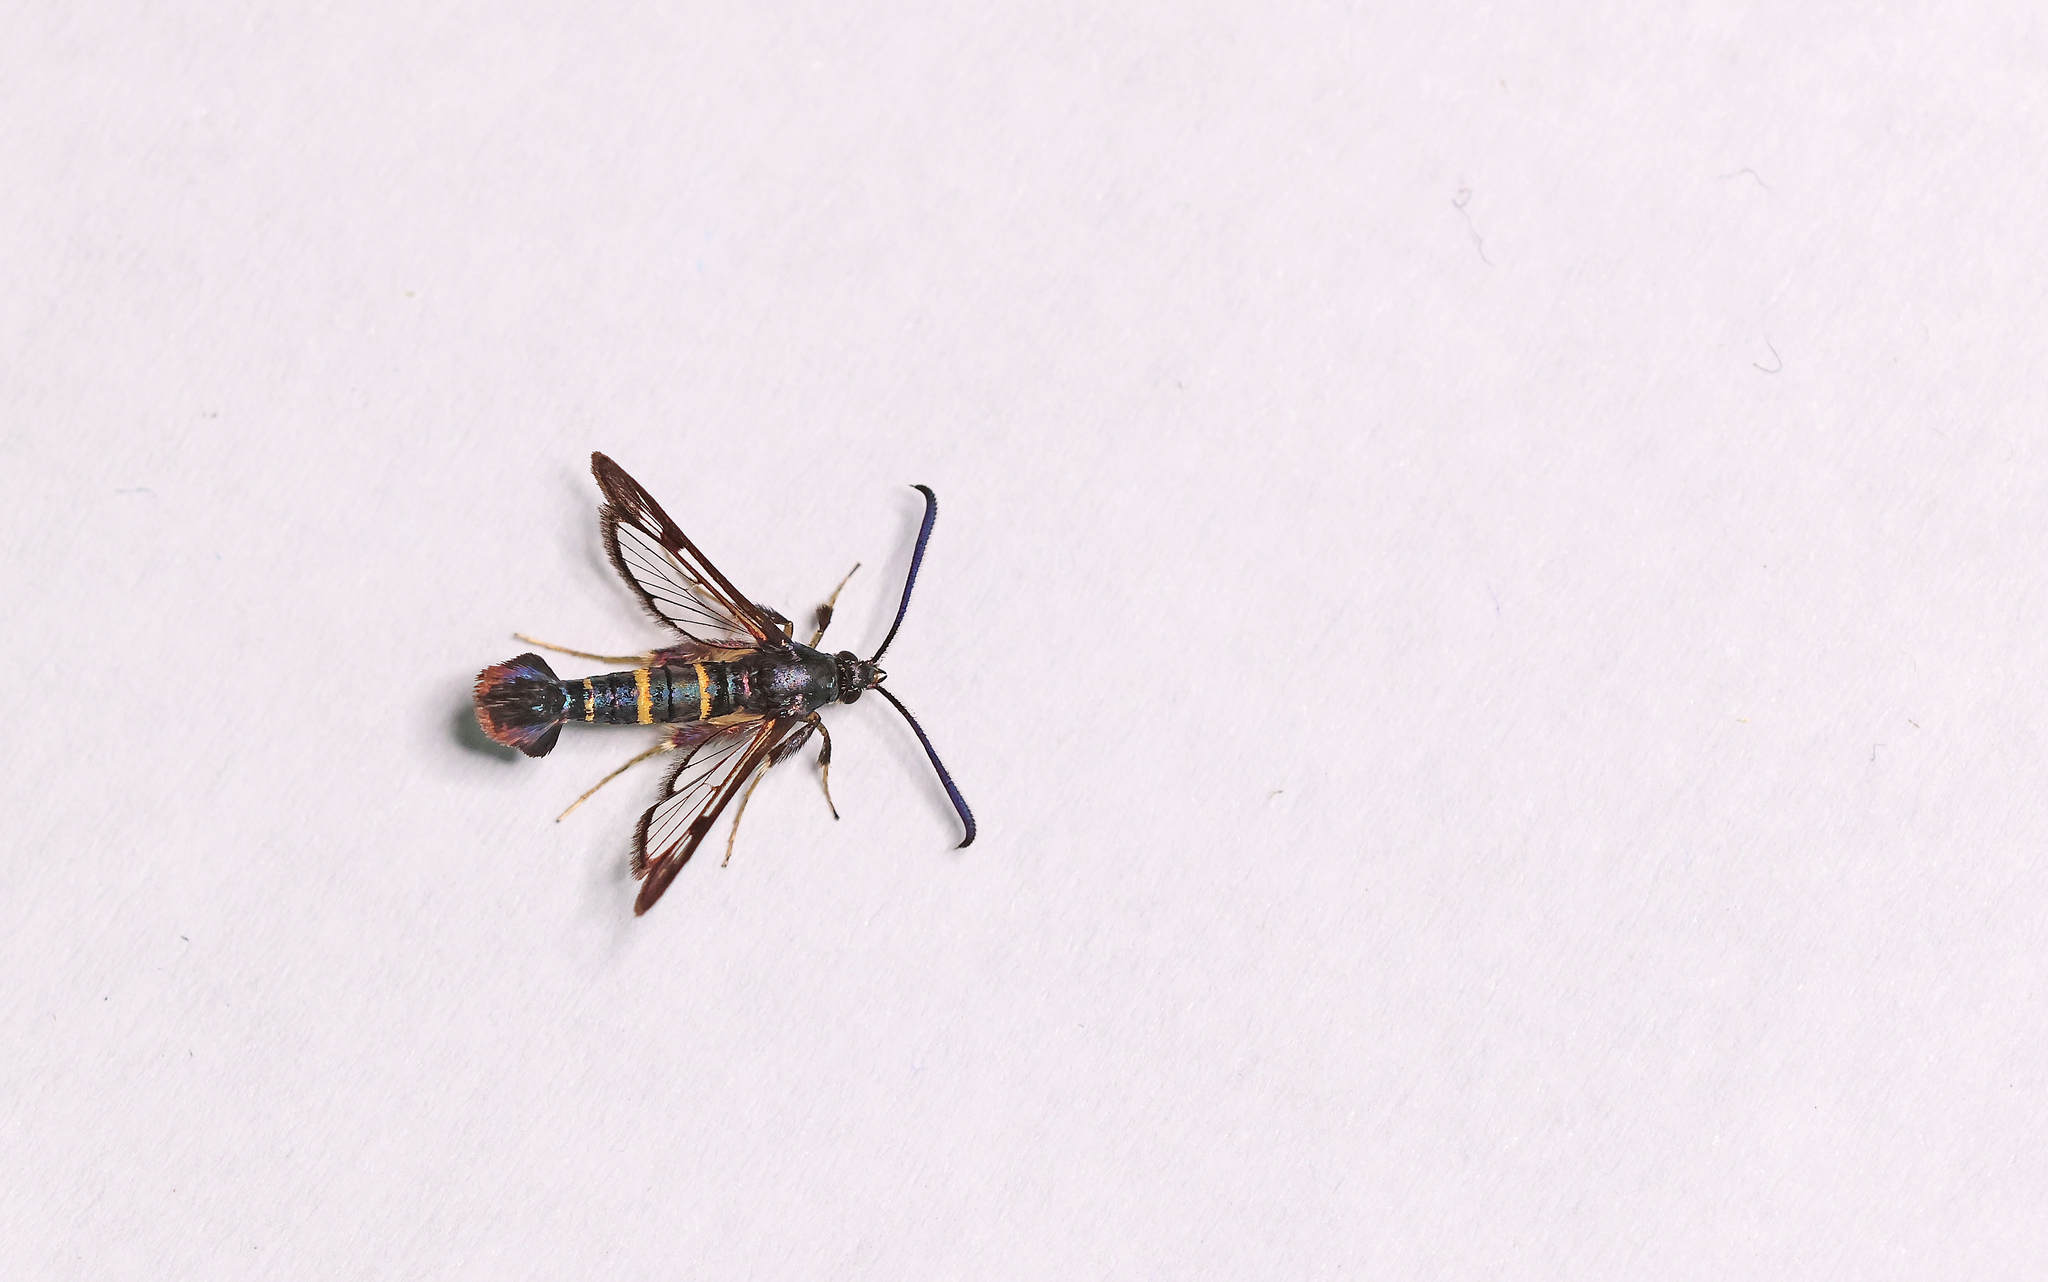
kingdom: Animalia
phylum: Arthropoda
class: Insecta
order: Lepidoptera
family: Sesiidae
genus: Synanthedon
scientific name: Synanthedon flaviventris
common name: Sallow clearwing
